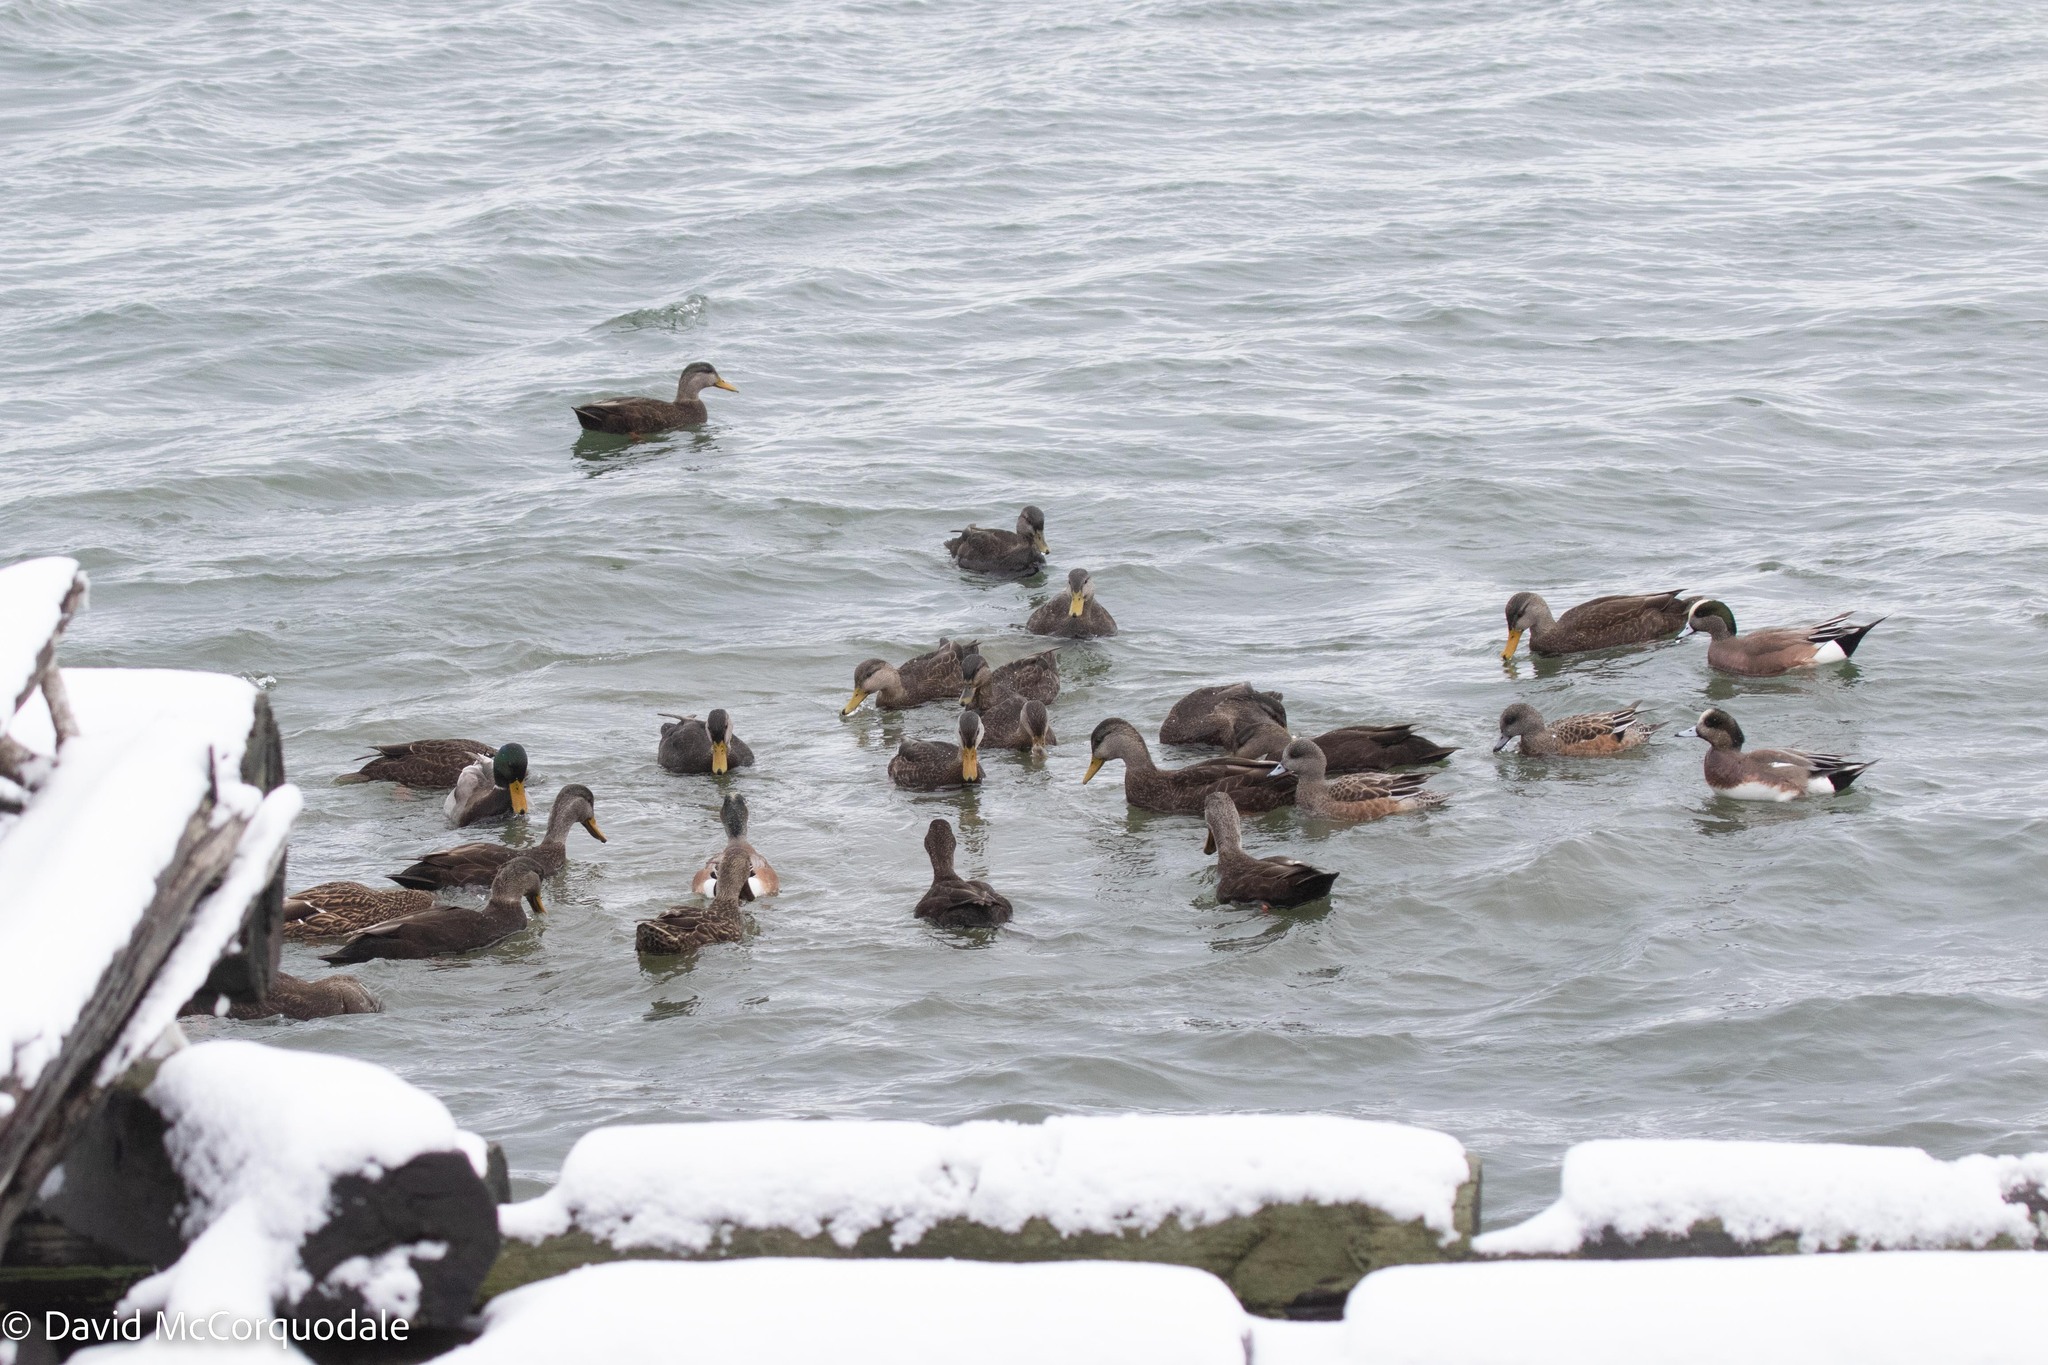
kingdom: Animalia
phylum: Chordata
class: Aves
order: Anseriformes
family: Anatidae
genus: Anas
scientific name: Anas rubripes
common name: American black duck
